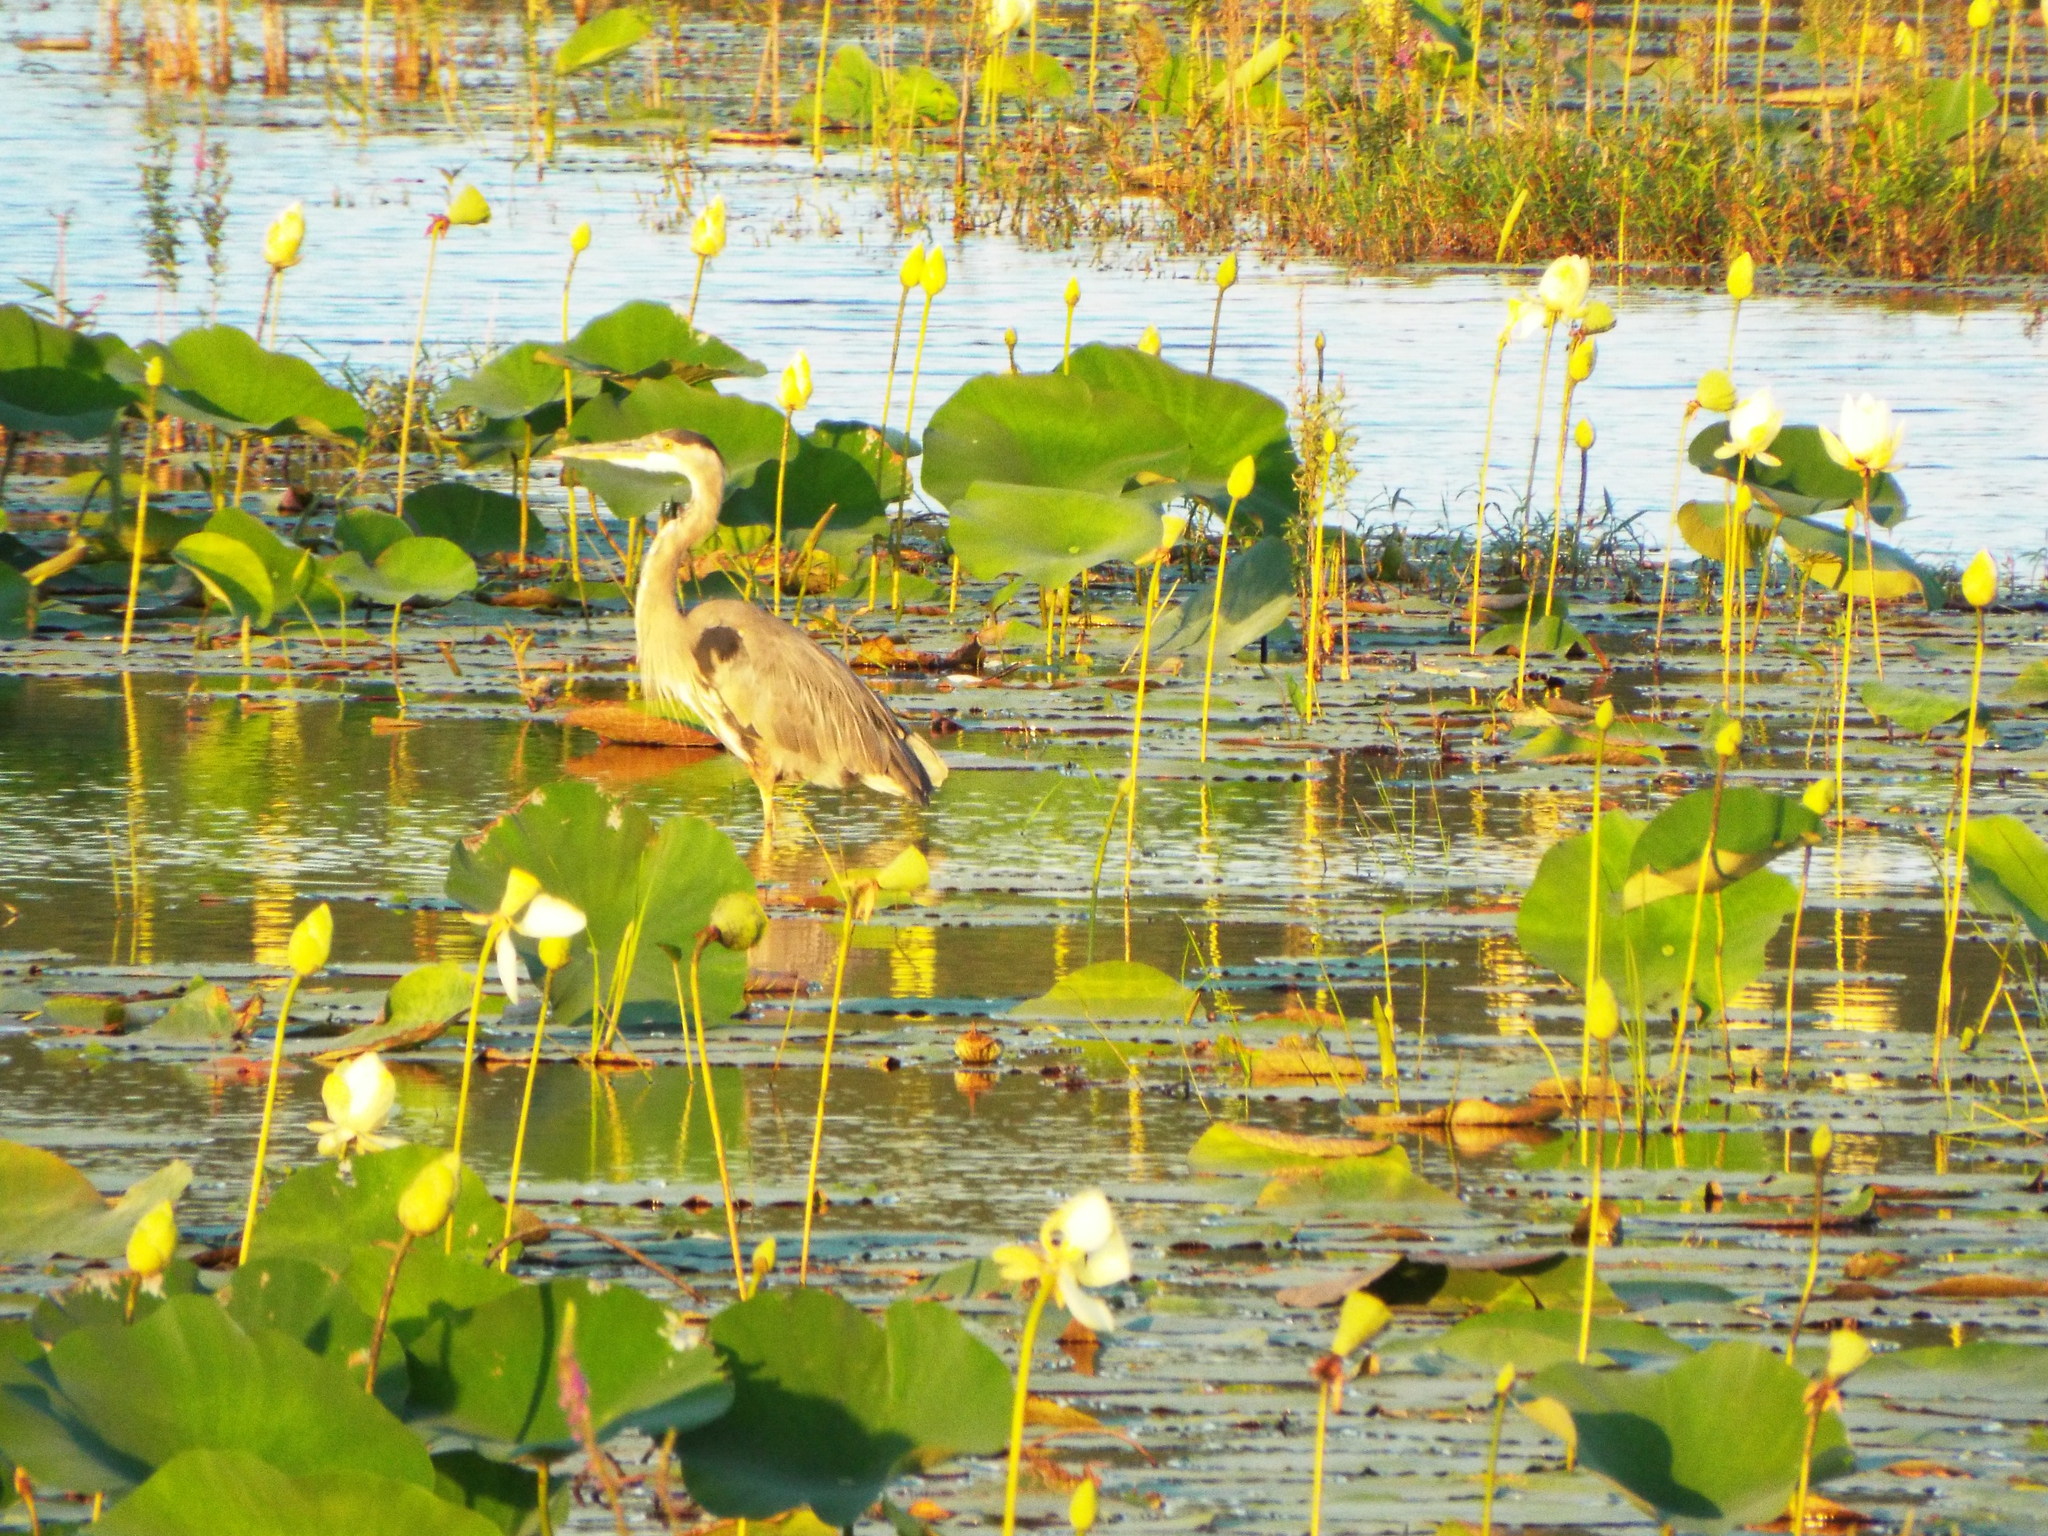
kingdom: Animalia
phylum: Chordata
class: Aves
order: Pelecaniformes
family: Ardeidae
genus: Ardea
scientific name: Ardea herodias
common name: Great blue heron
